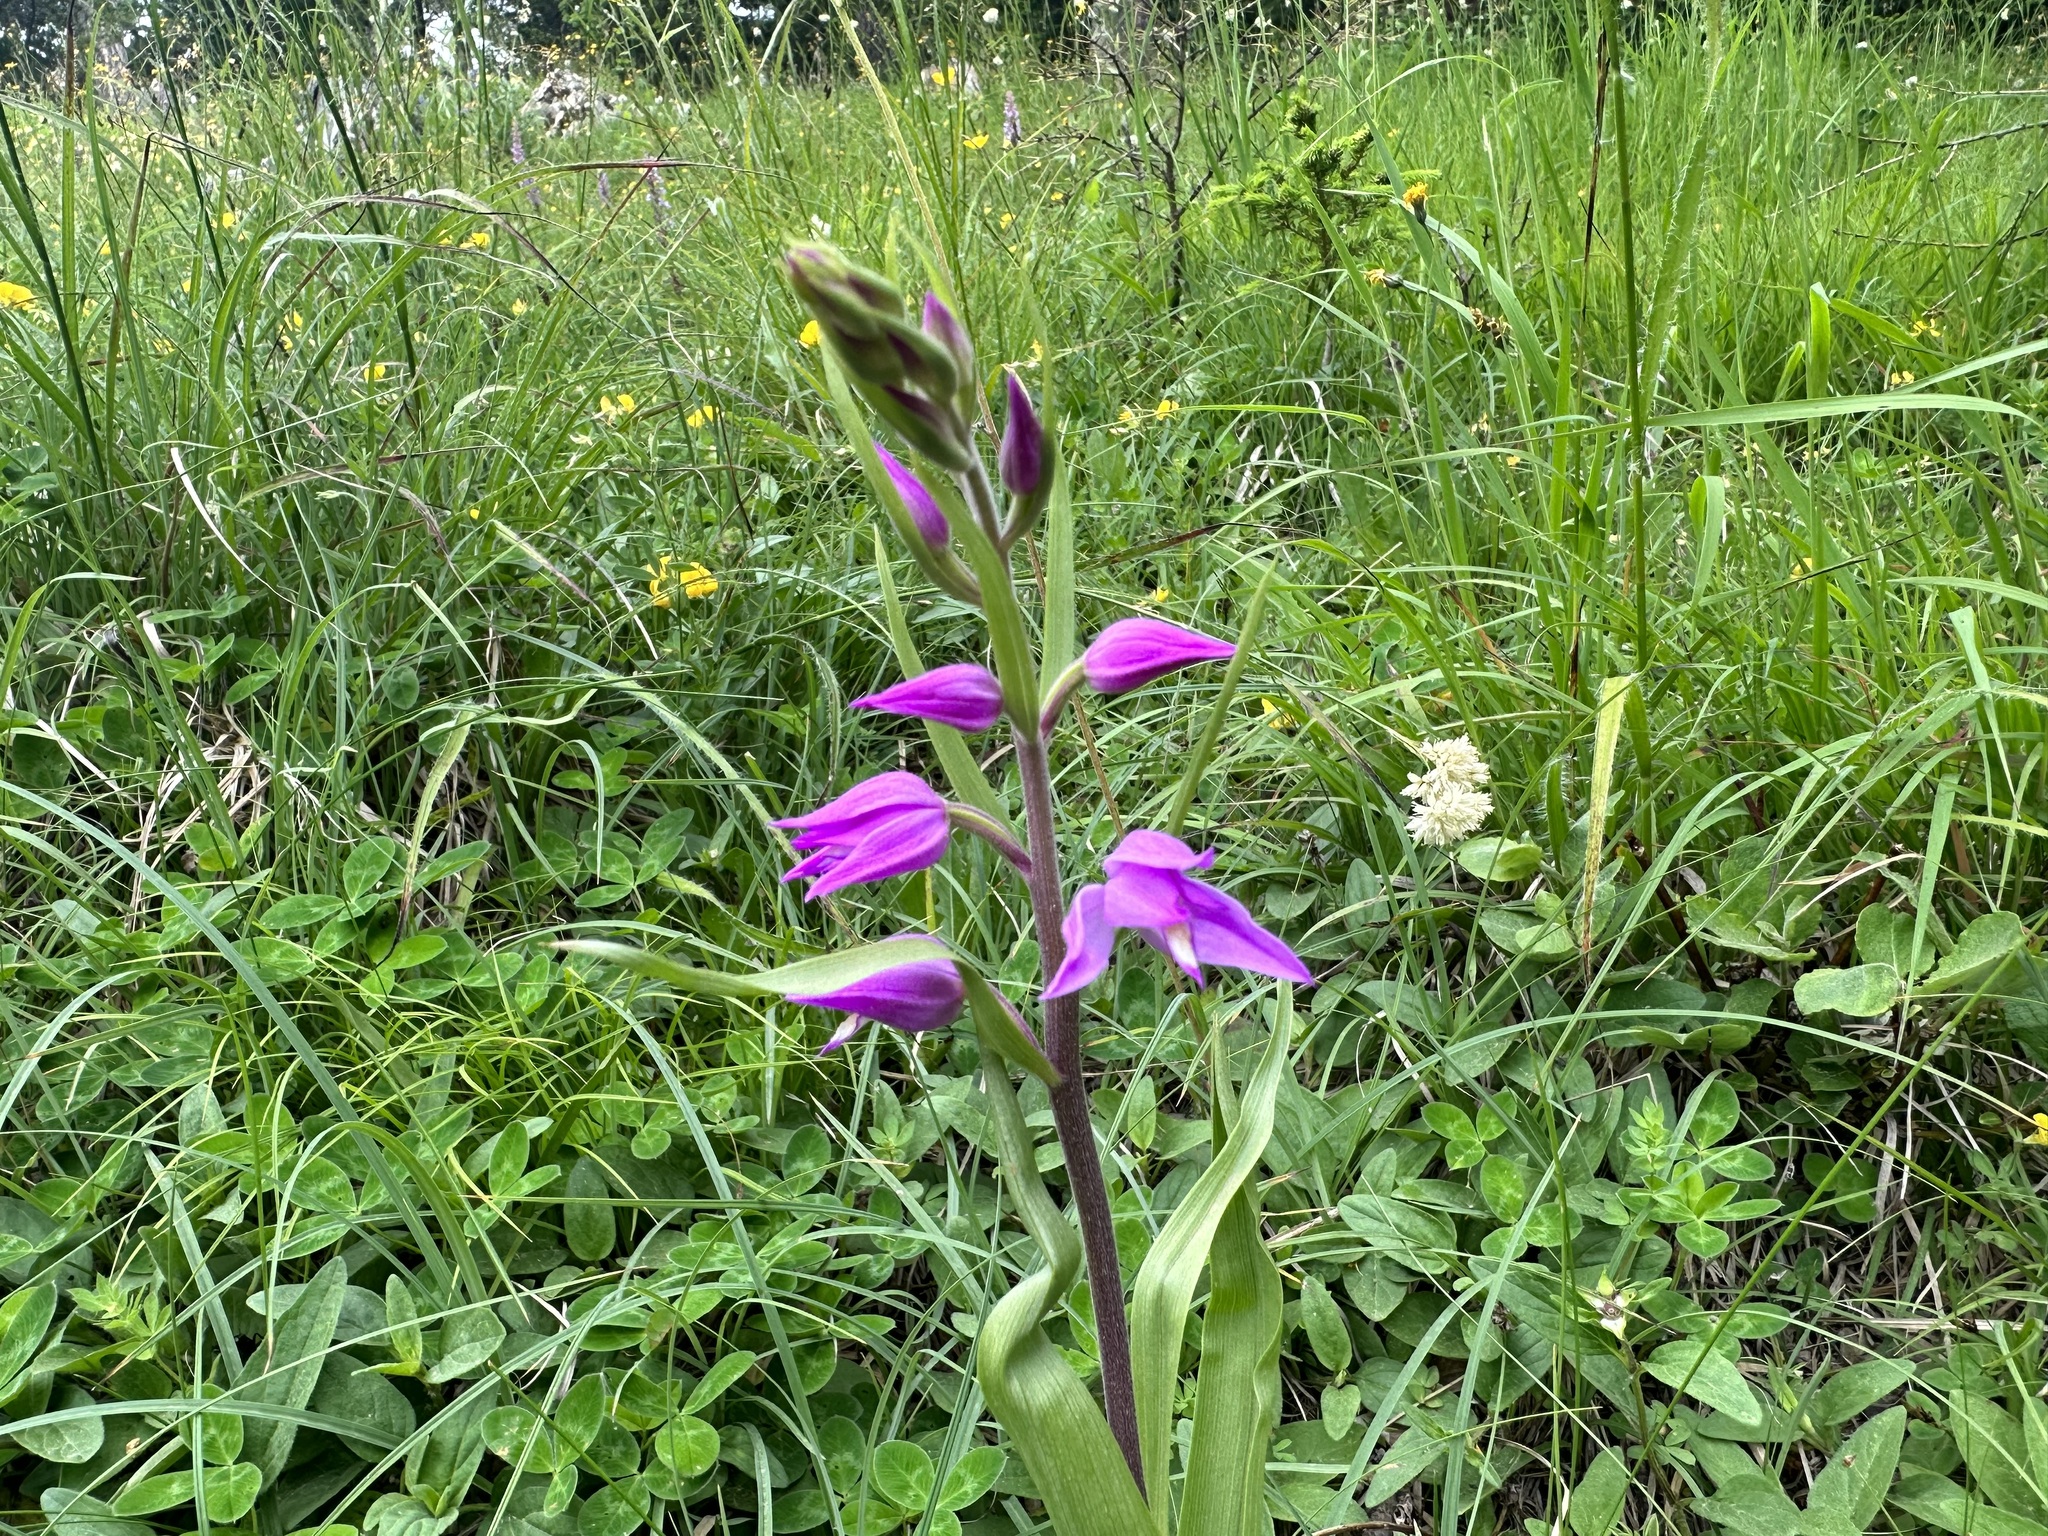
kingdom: Plantae
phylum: Tracheophyta
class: Liliopsida
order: Asparagales
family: Orchidaceae
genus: Cephalanthera
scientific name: Cephalanthera rubra
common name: Red helleborine
